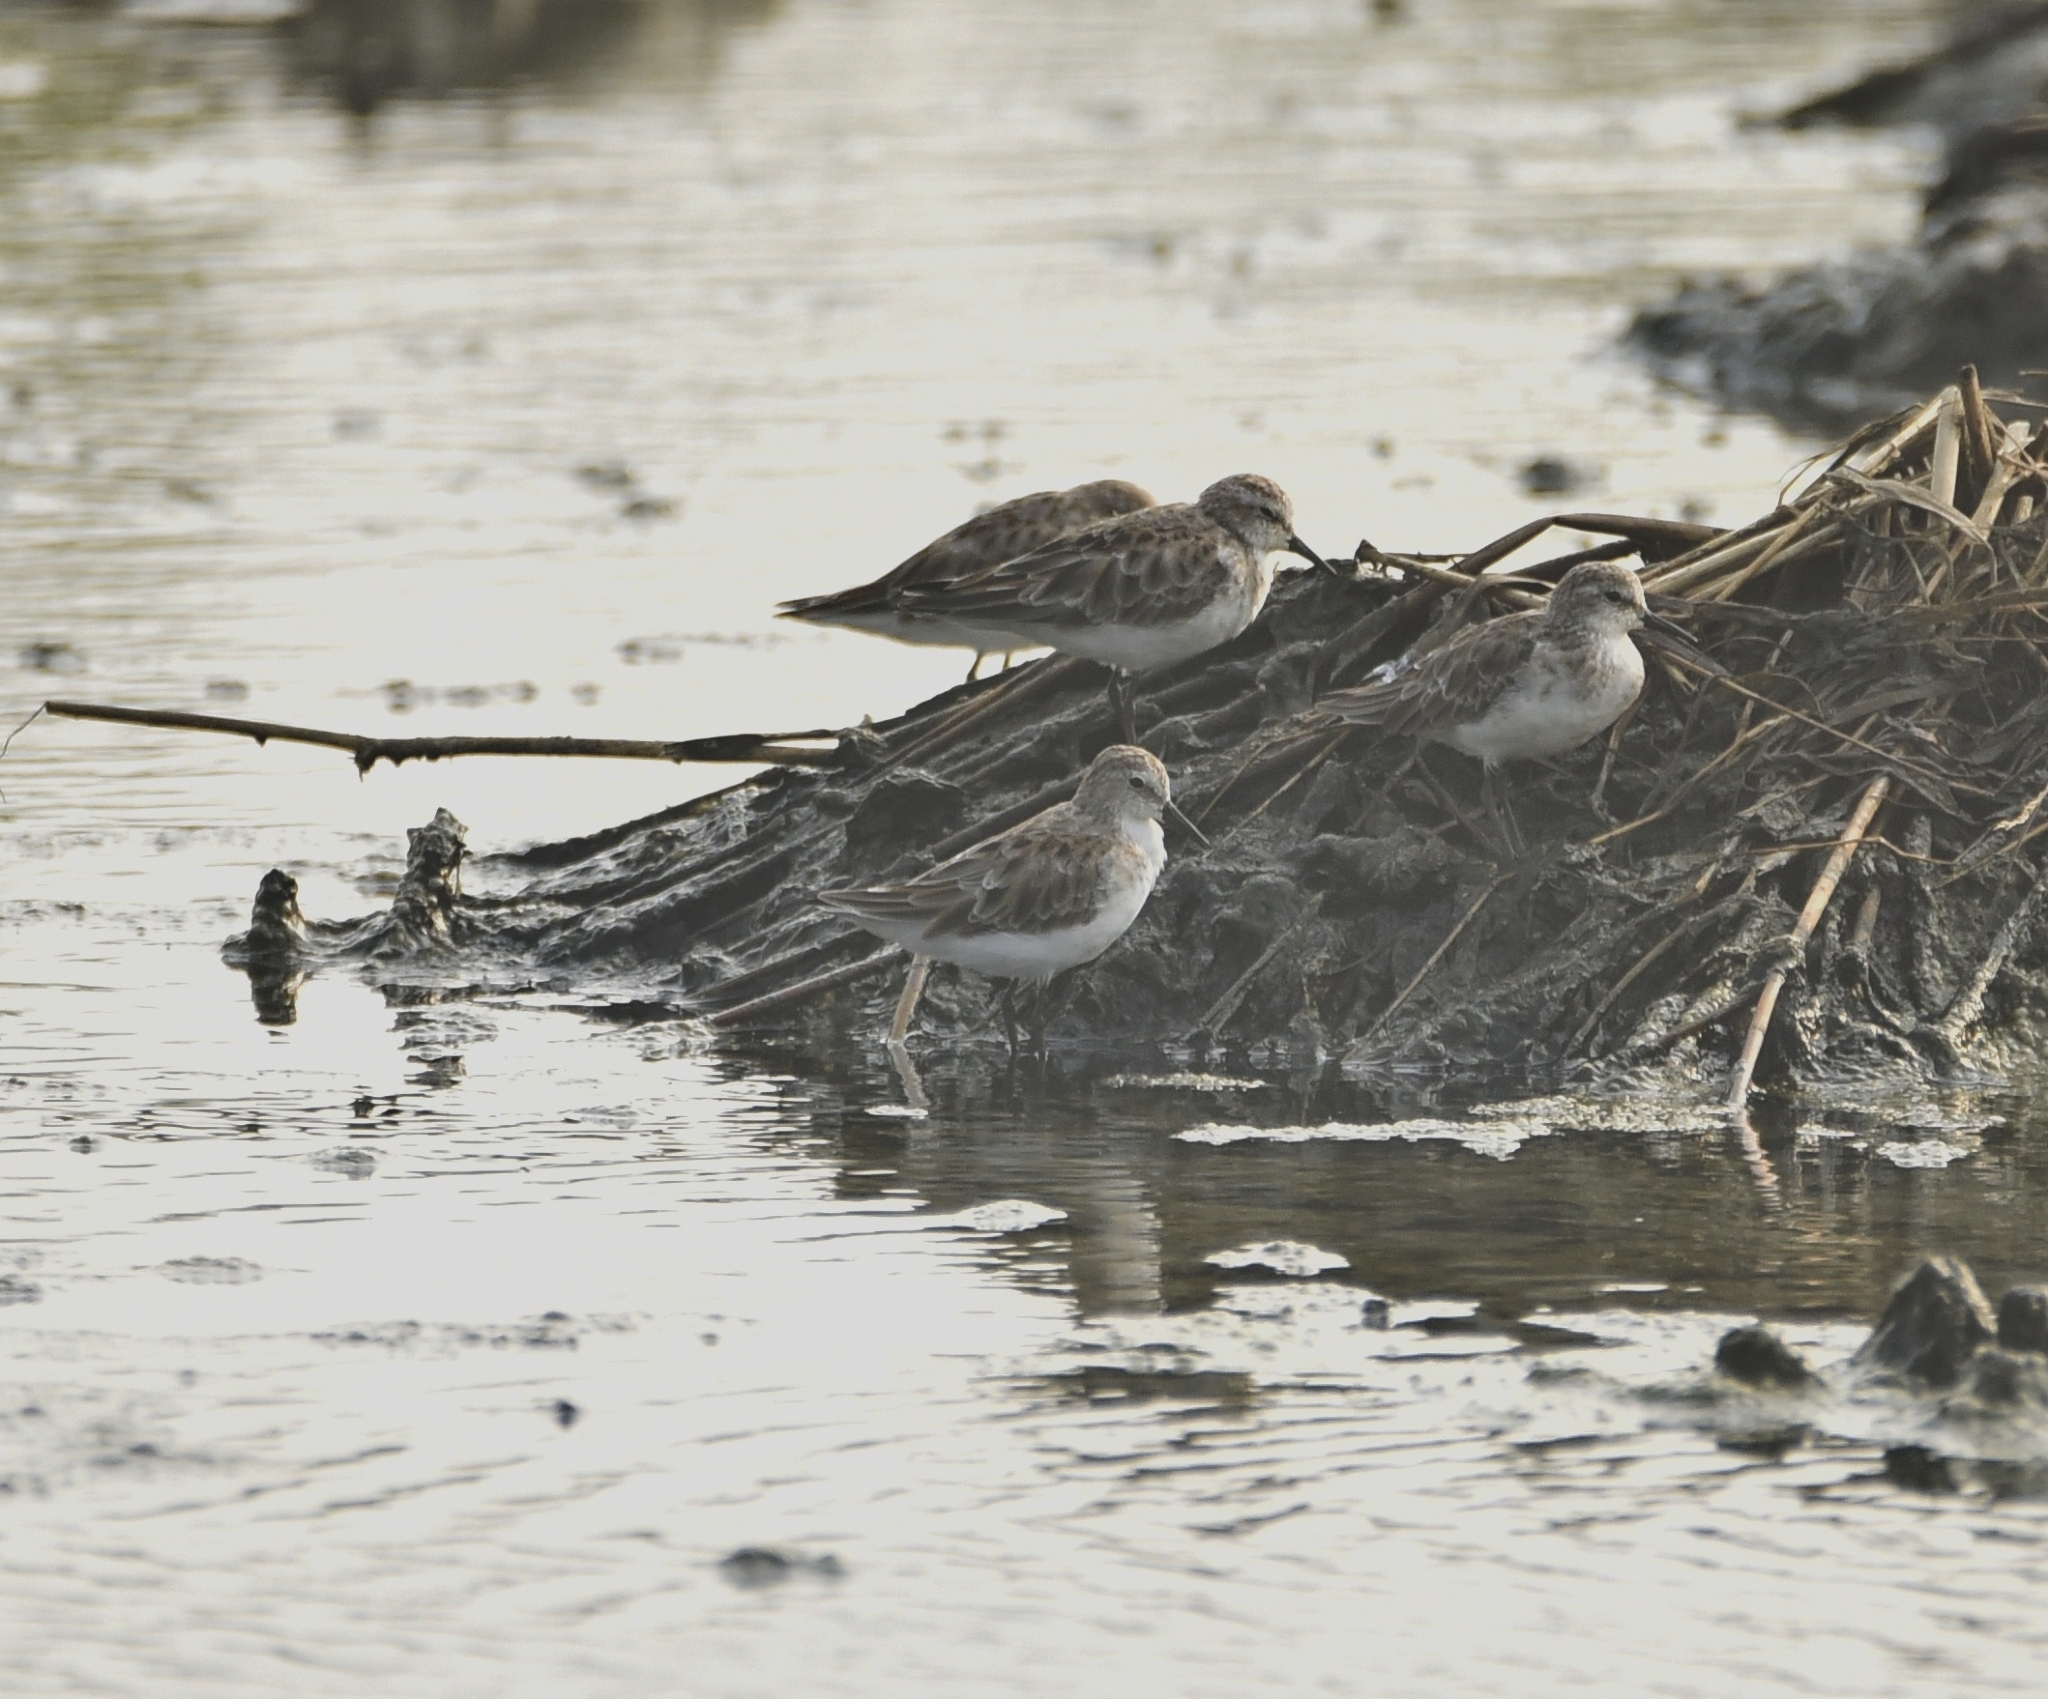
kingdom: Animalia
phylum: Chordata
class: Aves
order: Charadriiformes
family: Scolopacidae
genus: Calidris
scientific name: Calidris minuta
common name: Little stint
